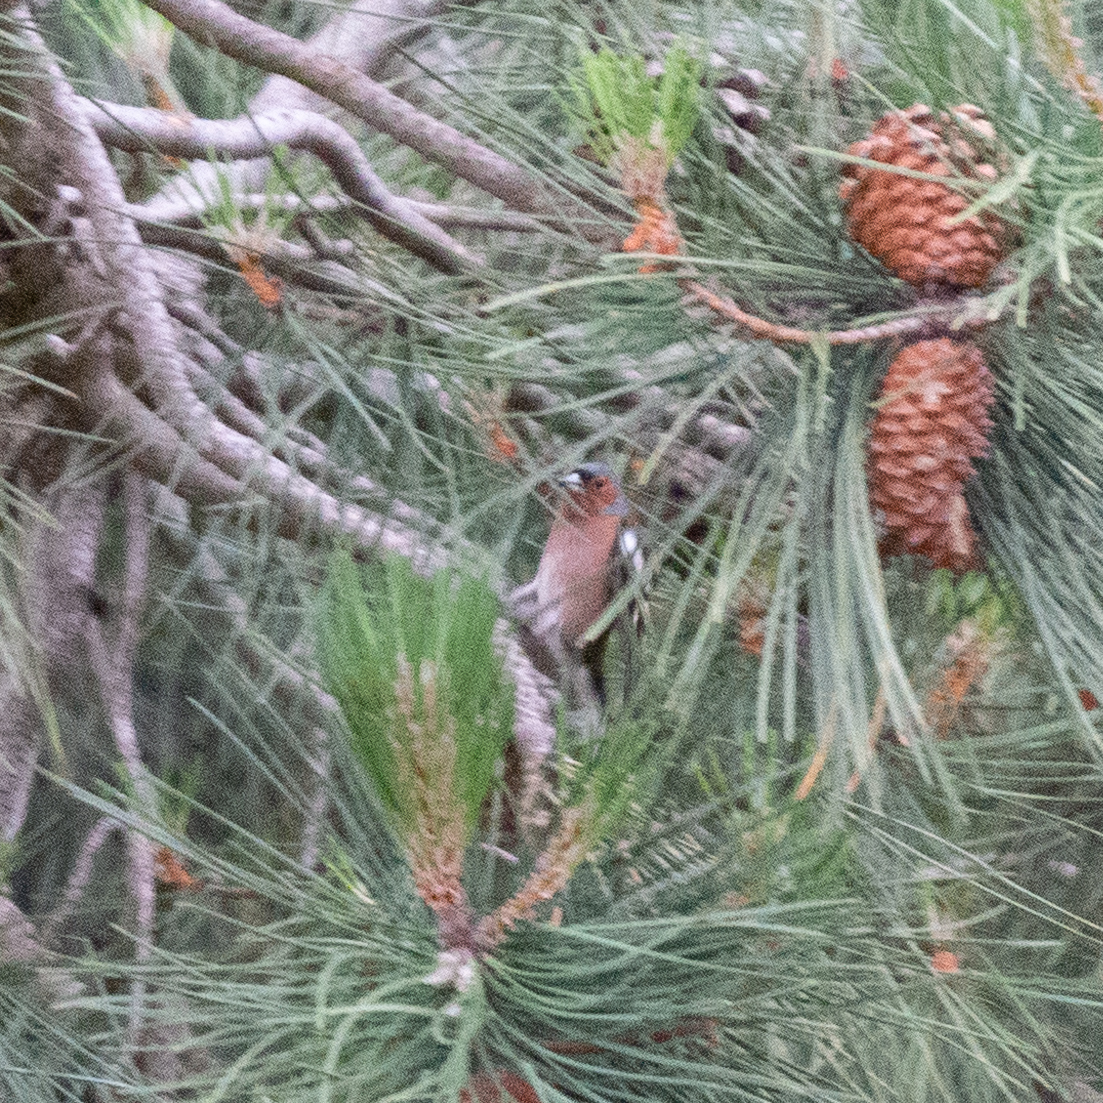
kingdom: Animalia
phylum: Chordata
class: Aves
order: Passeriformes
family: Fringillidae
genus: Fringilla
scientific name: Fringilla coelebs
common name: Common chaffinch
